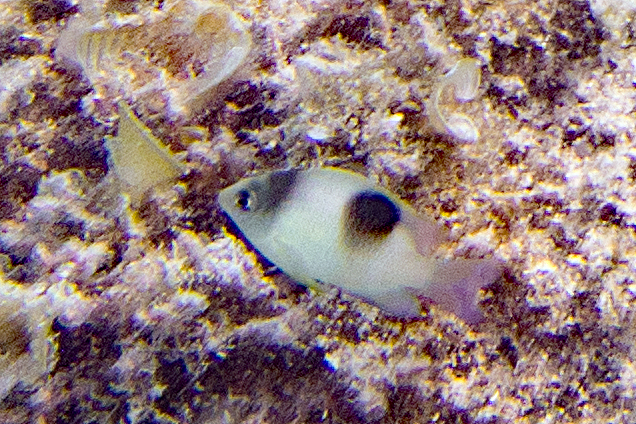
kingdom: Animalia
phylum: Chordata
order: Perciformes
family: Pomacentridae
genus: Dischistodus
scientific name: Dischistodus perspicillatus
